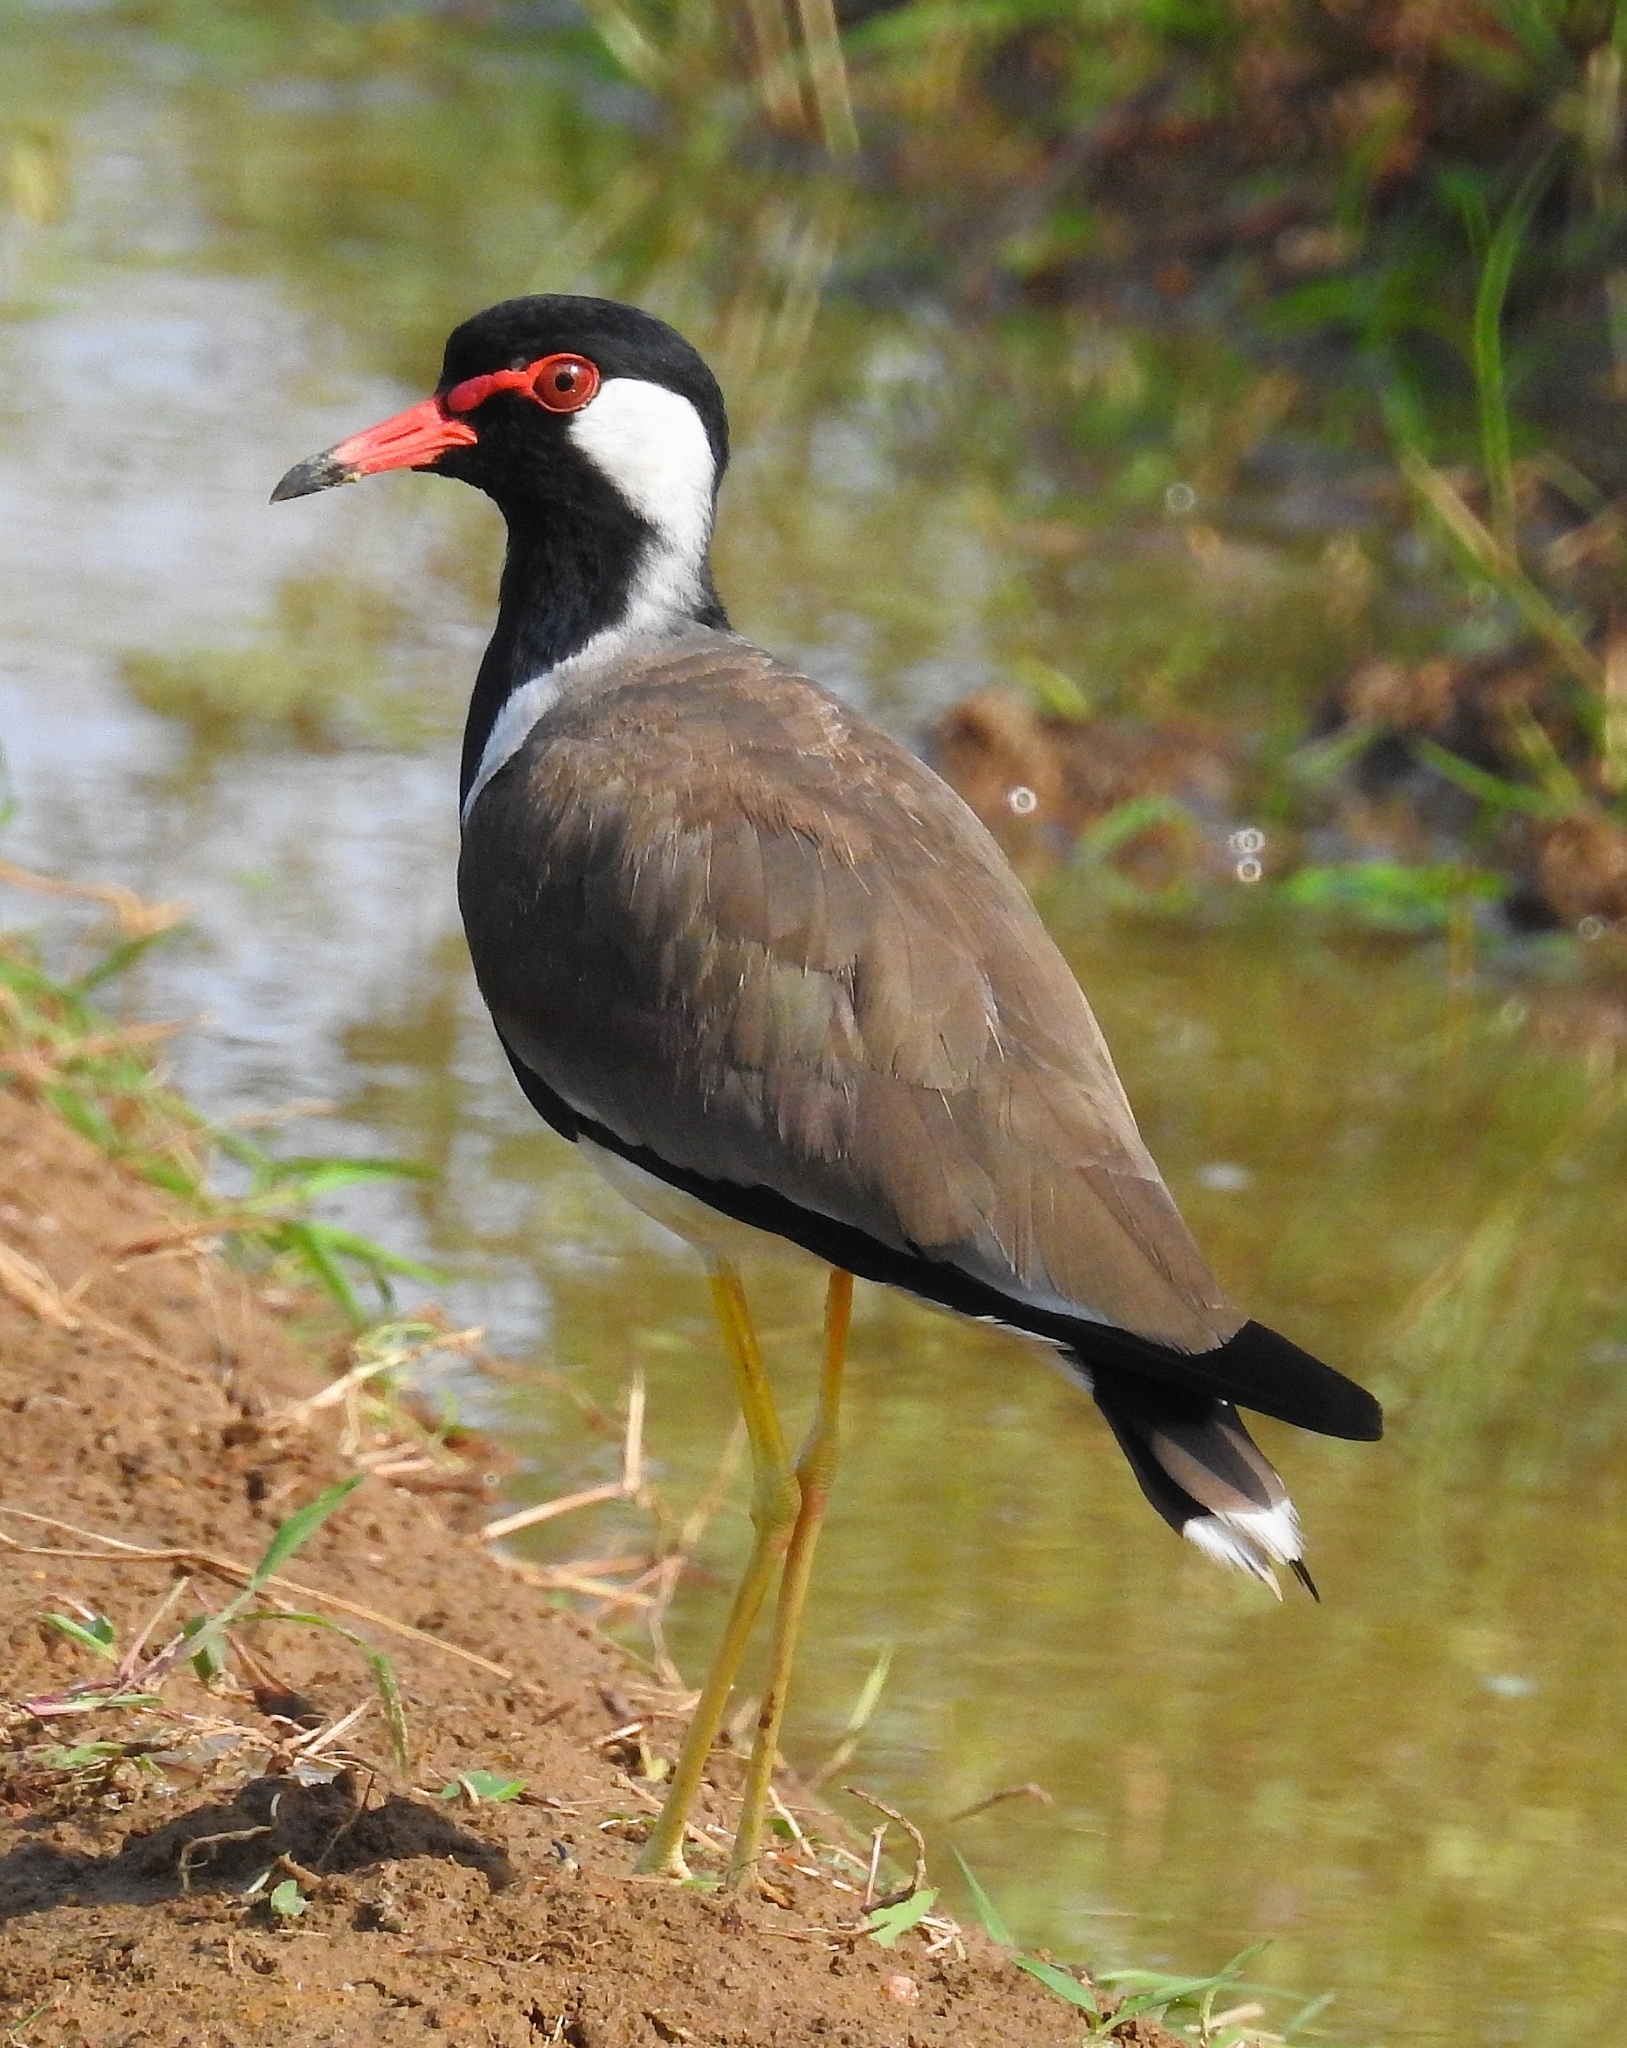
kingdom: Animalia
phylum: Chordata
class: Aves
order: Charadriiformes
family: Charadriidae
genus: Vanellus
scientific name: Vanellus indicus
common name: Red-wattled lapwing
